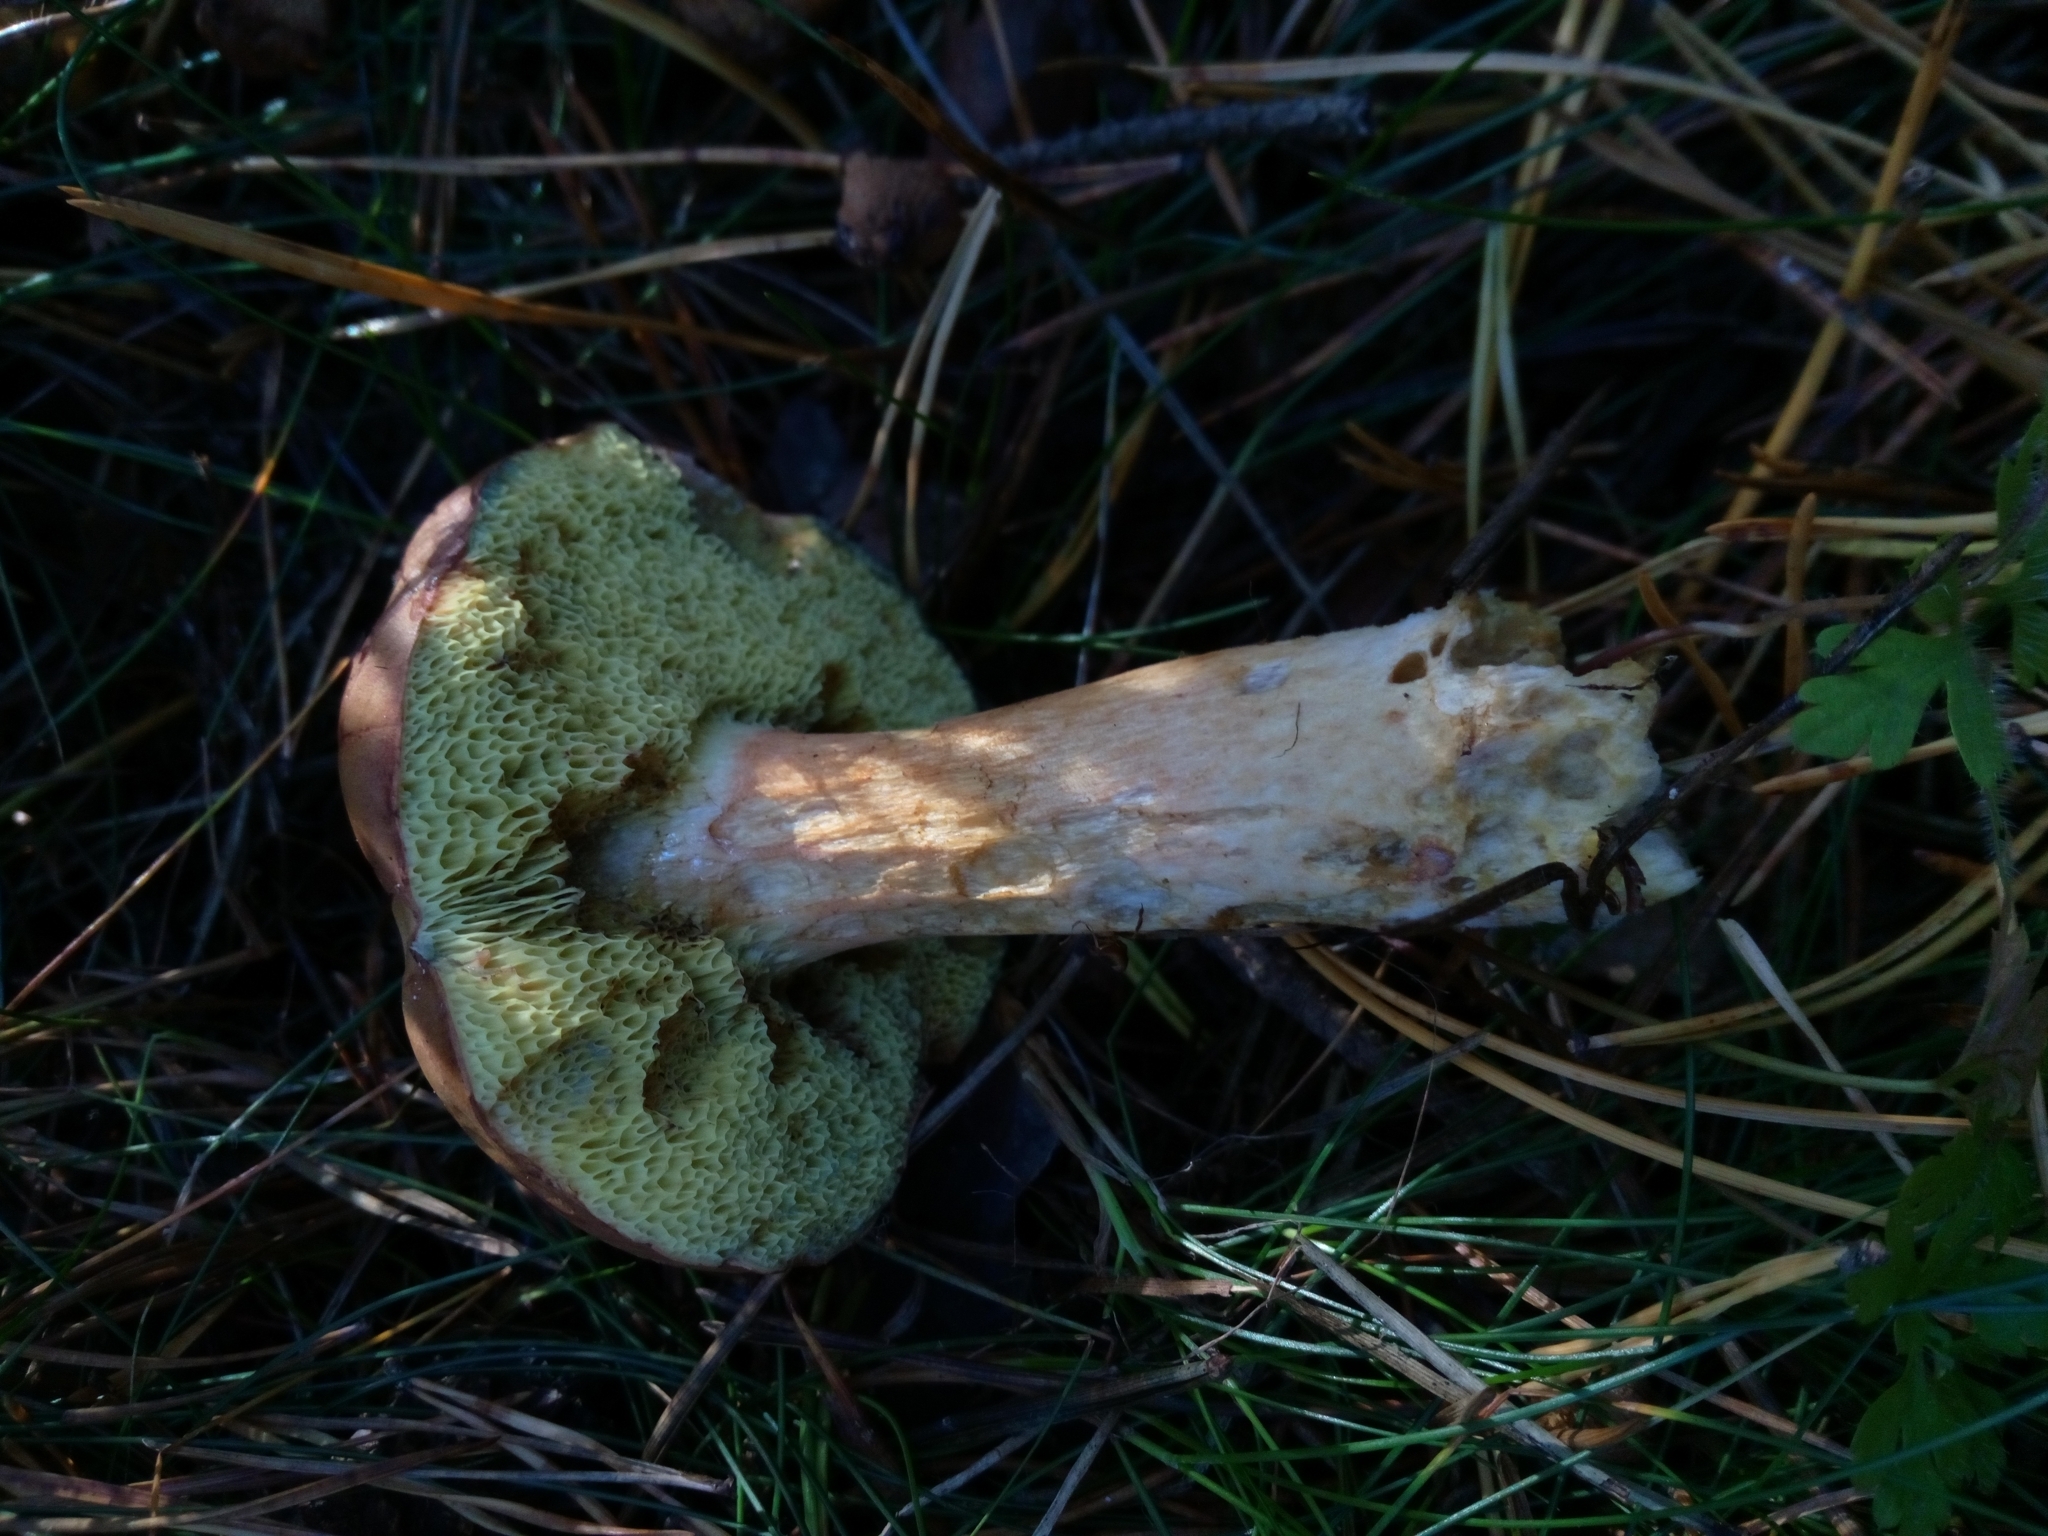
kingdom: Fungi
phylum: Basidiomycota
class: Agaricomycetes
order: Boletales
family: Boletaceae
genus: Imleria
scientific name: Imleria badia
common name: Bay bolete
